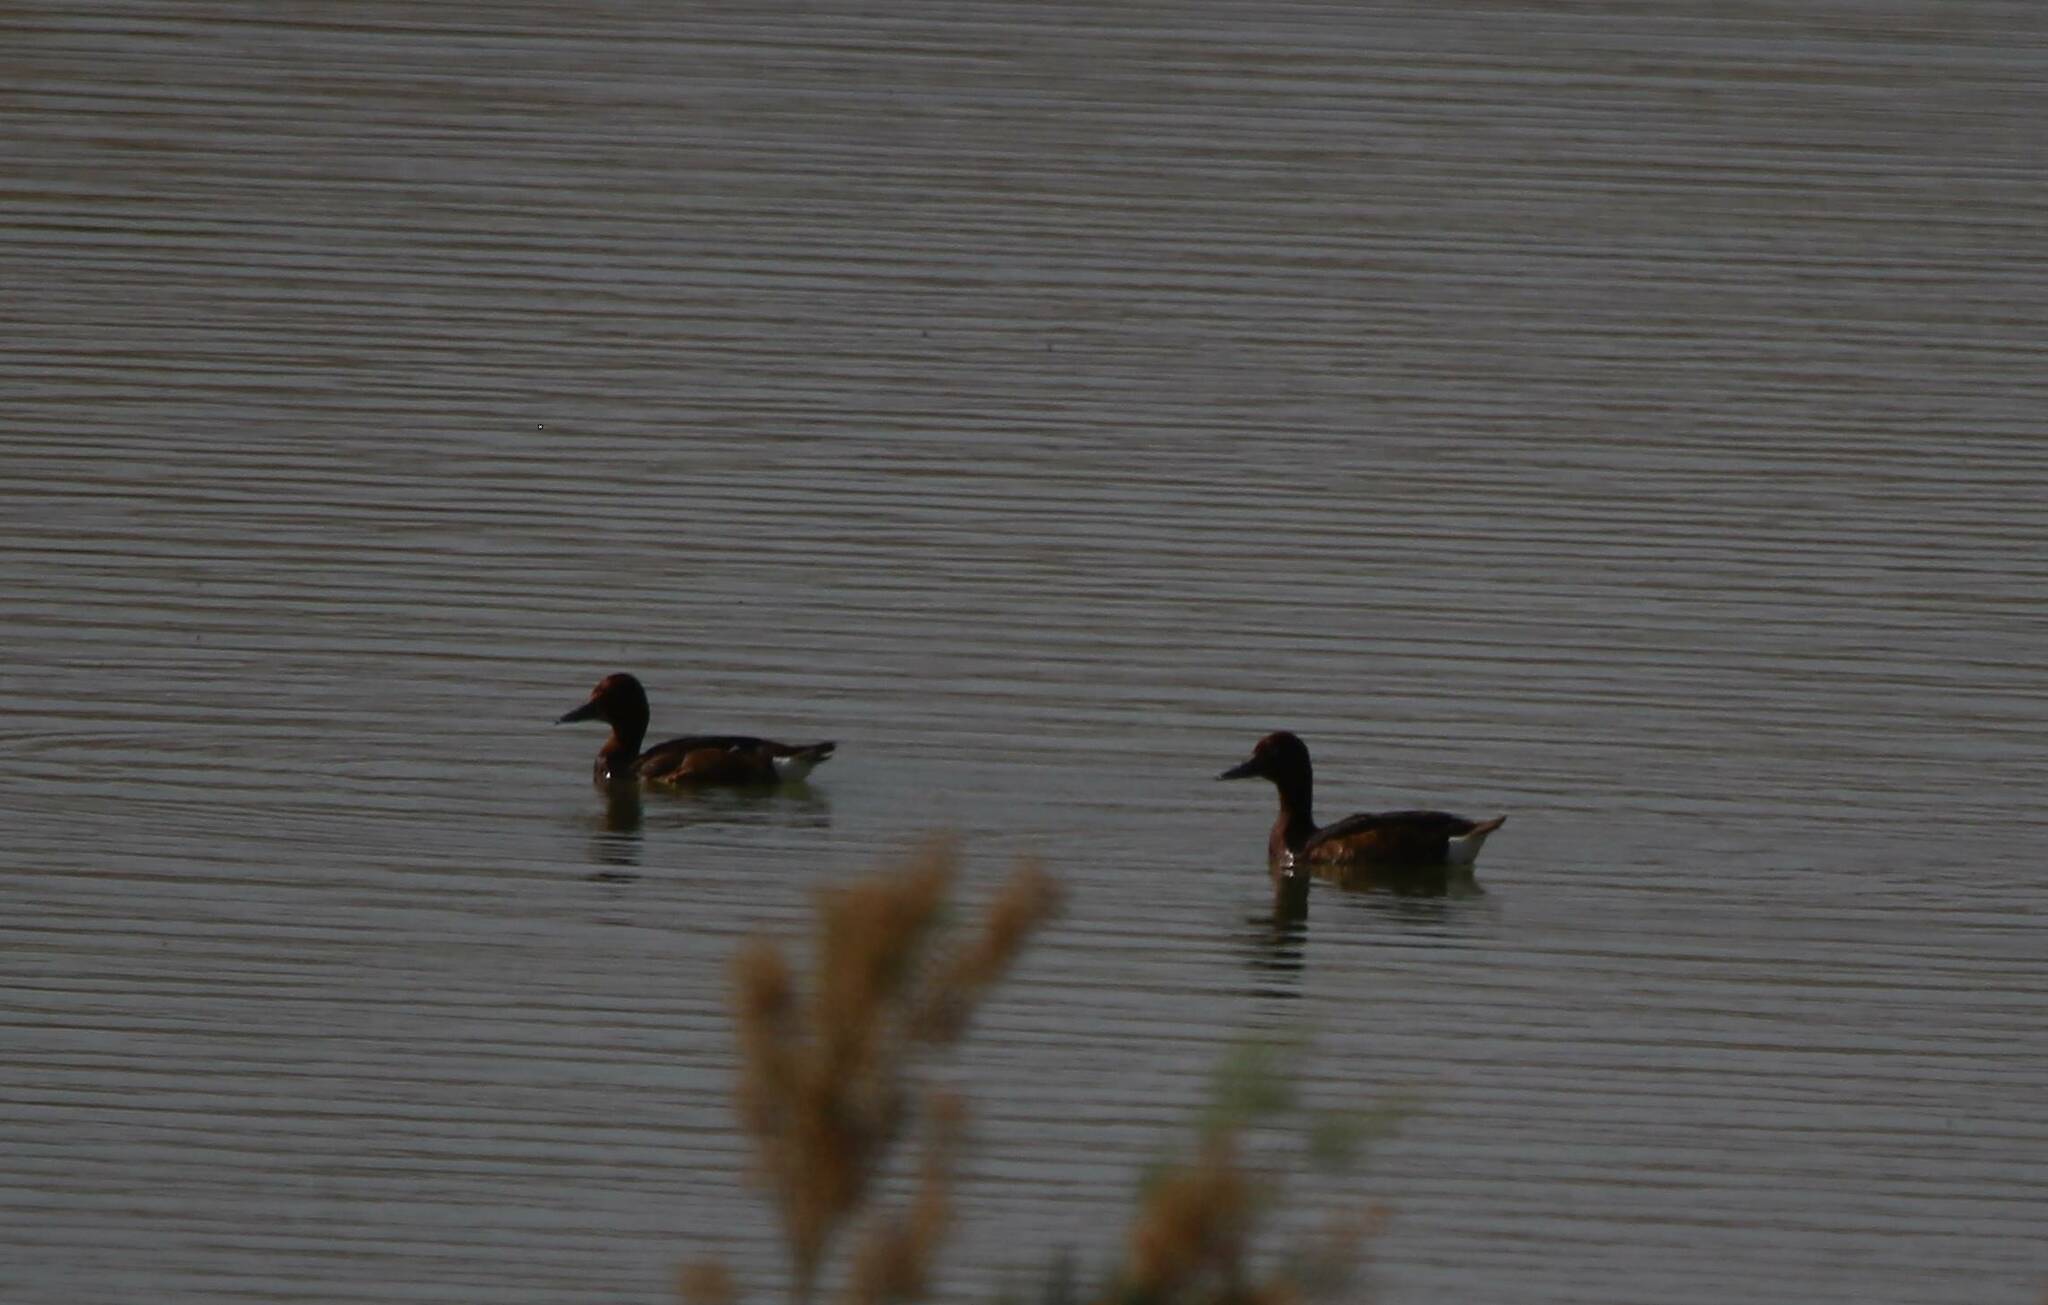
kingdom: Animalia
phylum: Chordata
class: Aves
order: Anseriformes
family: Anatidae
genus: Aythya
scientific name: Aythya nyroca
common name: Ferruginous duck
